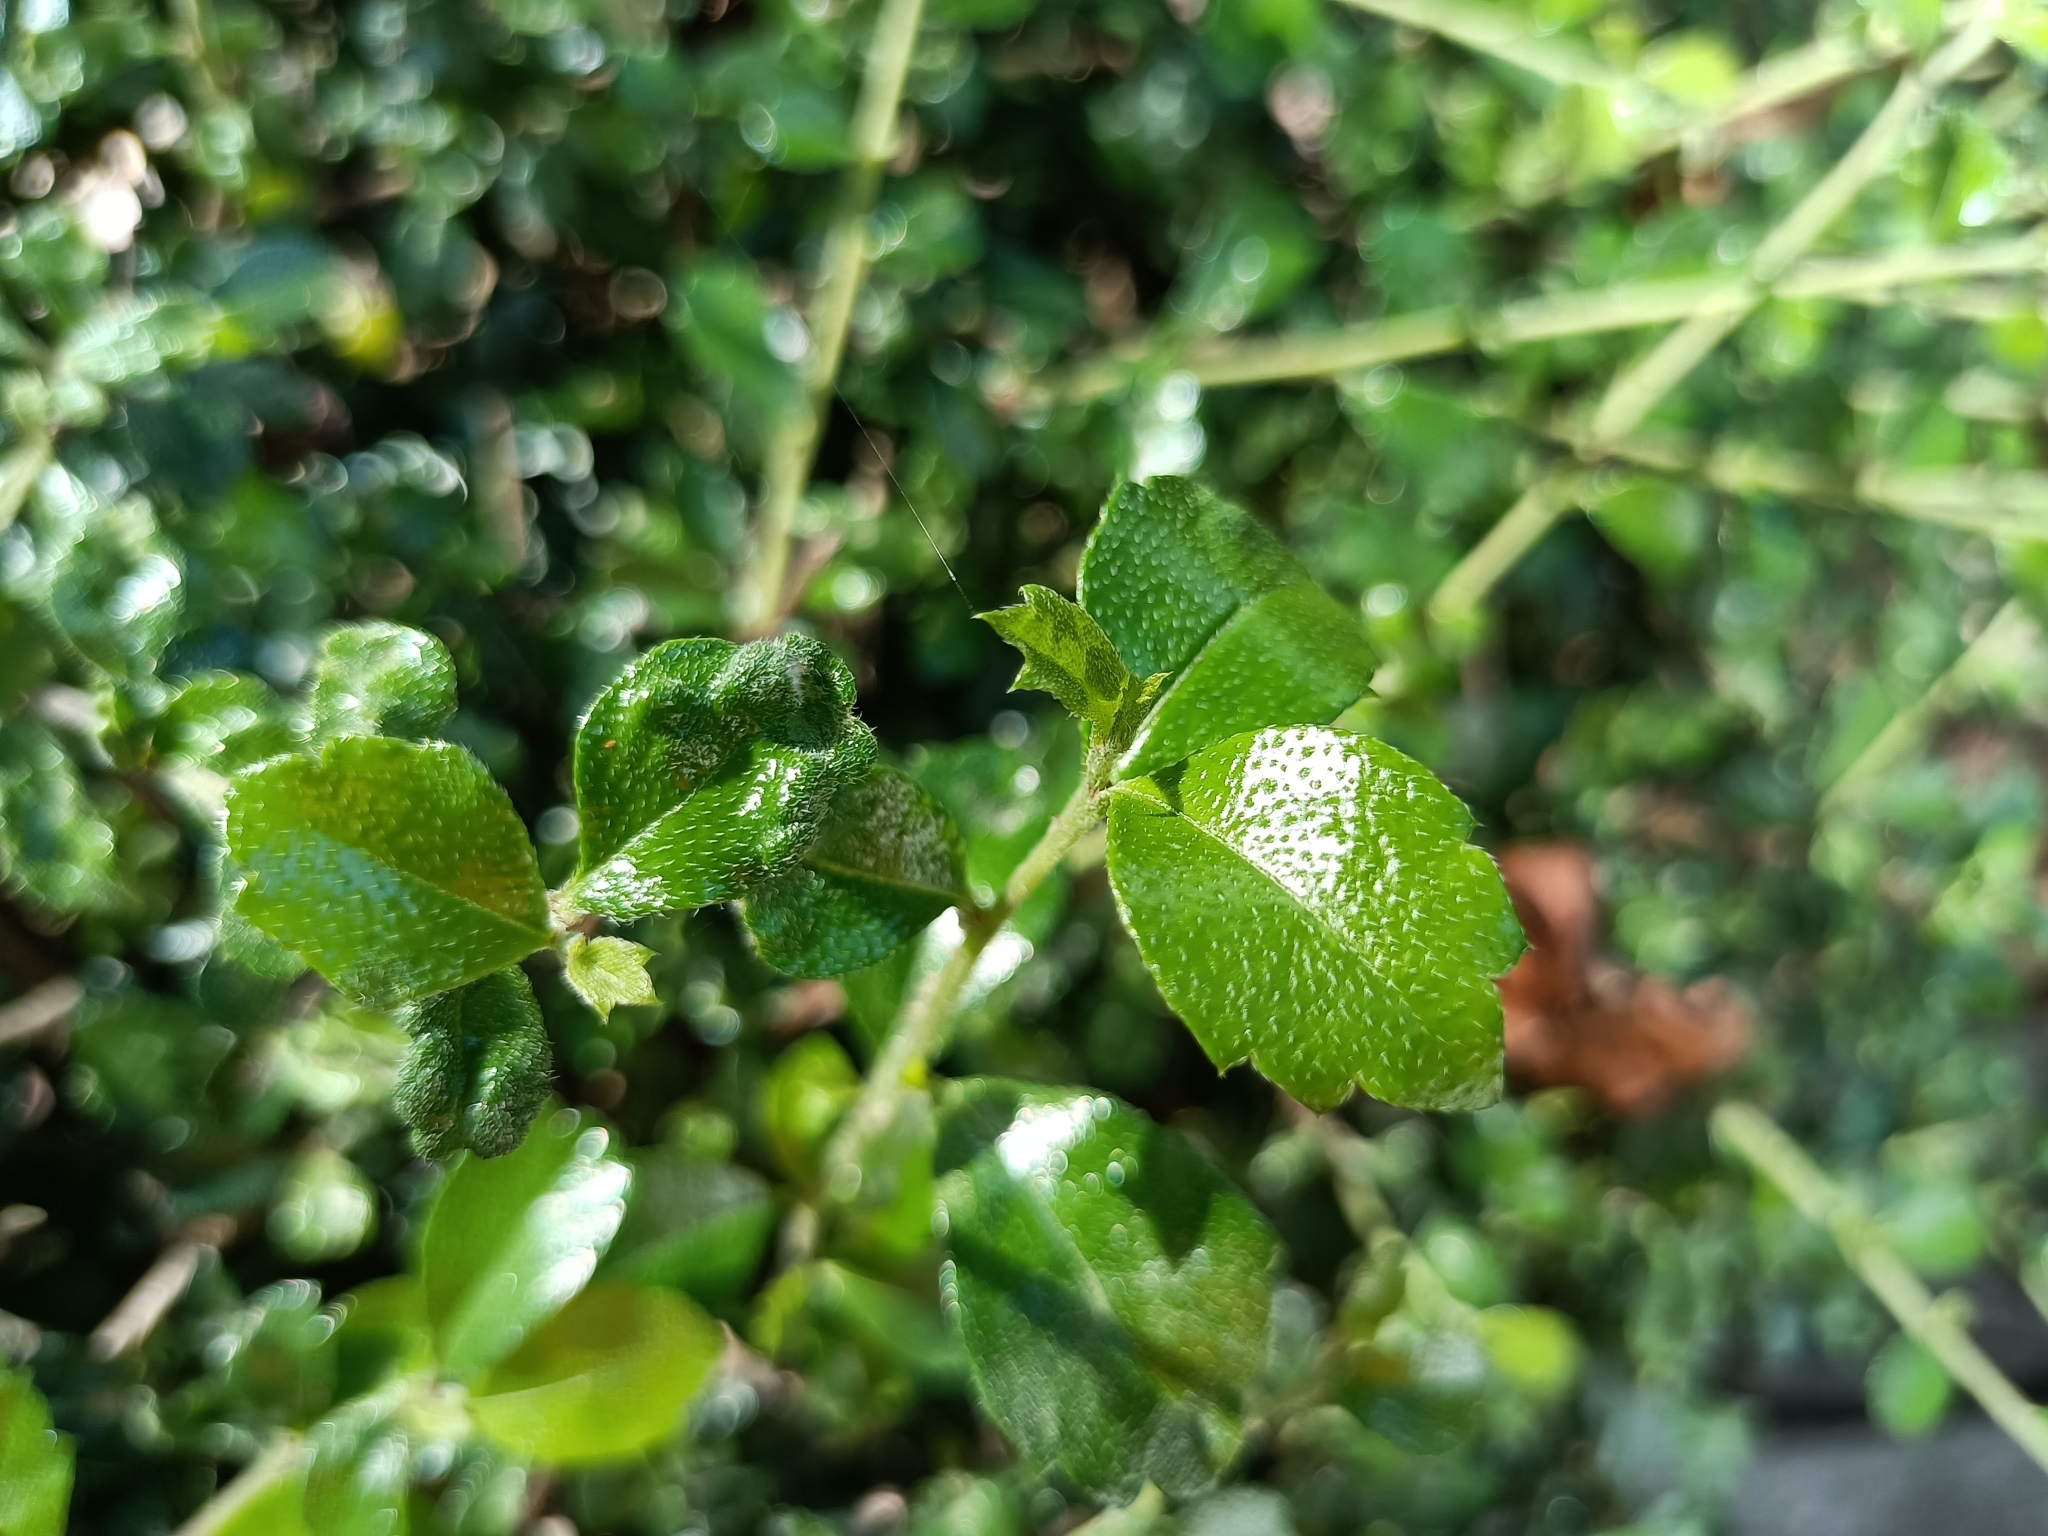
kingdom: Plantae
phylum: Tracheophyta
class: Magnoliopsida
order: Boraginales
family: Ehretiaceae
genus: Ehretia
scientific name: Ehretia microphylla
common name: Fukien-tea
